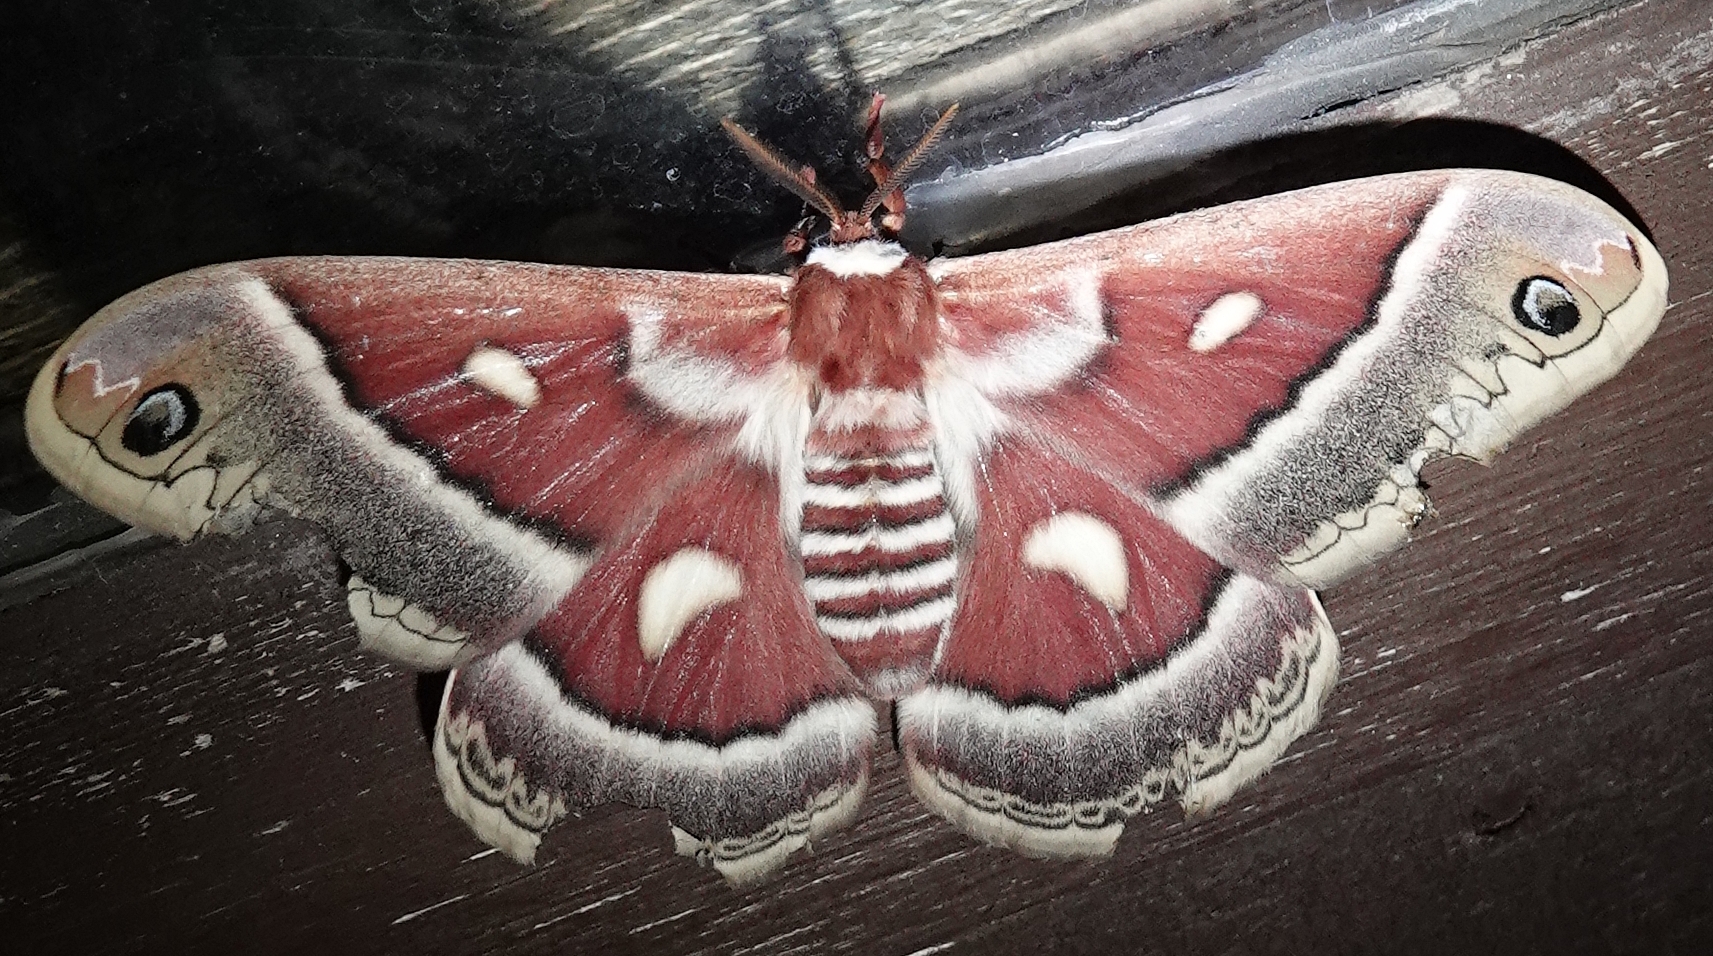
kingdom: Animalia
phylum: Arthropoda
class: Insecta
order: Lepidoptera
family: Saturniidae
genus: Hyalophora
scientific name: Hyalophora gloveri
